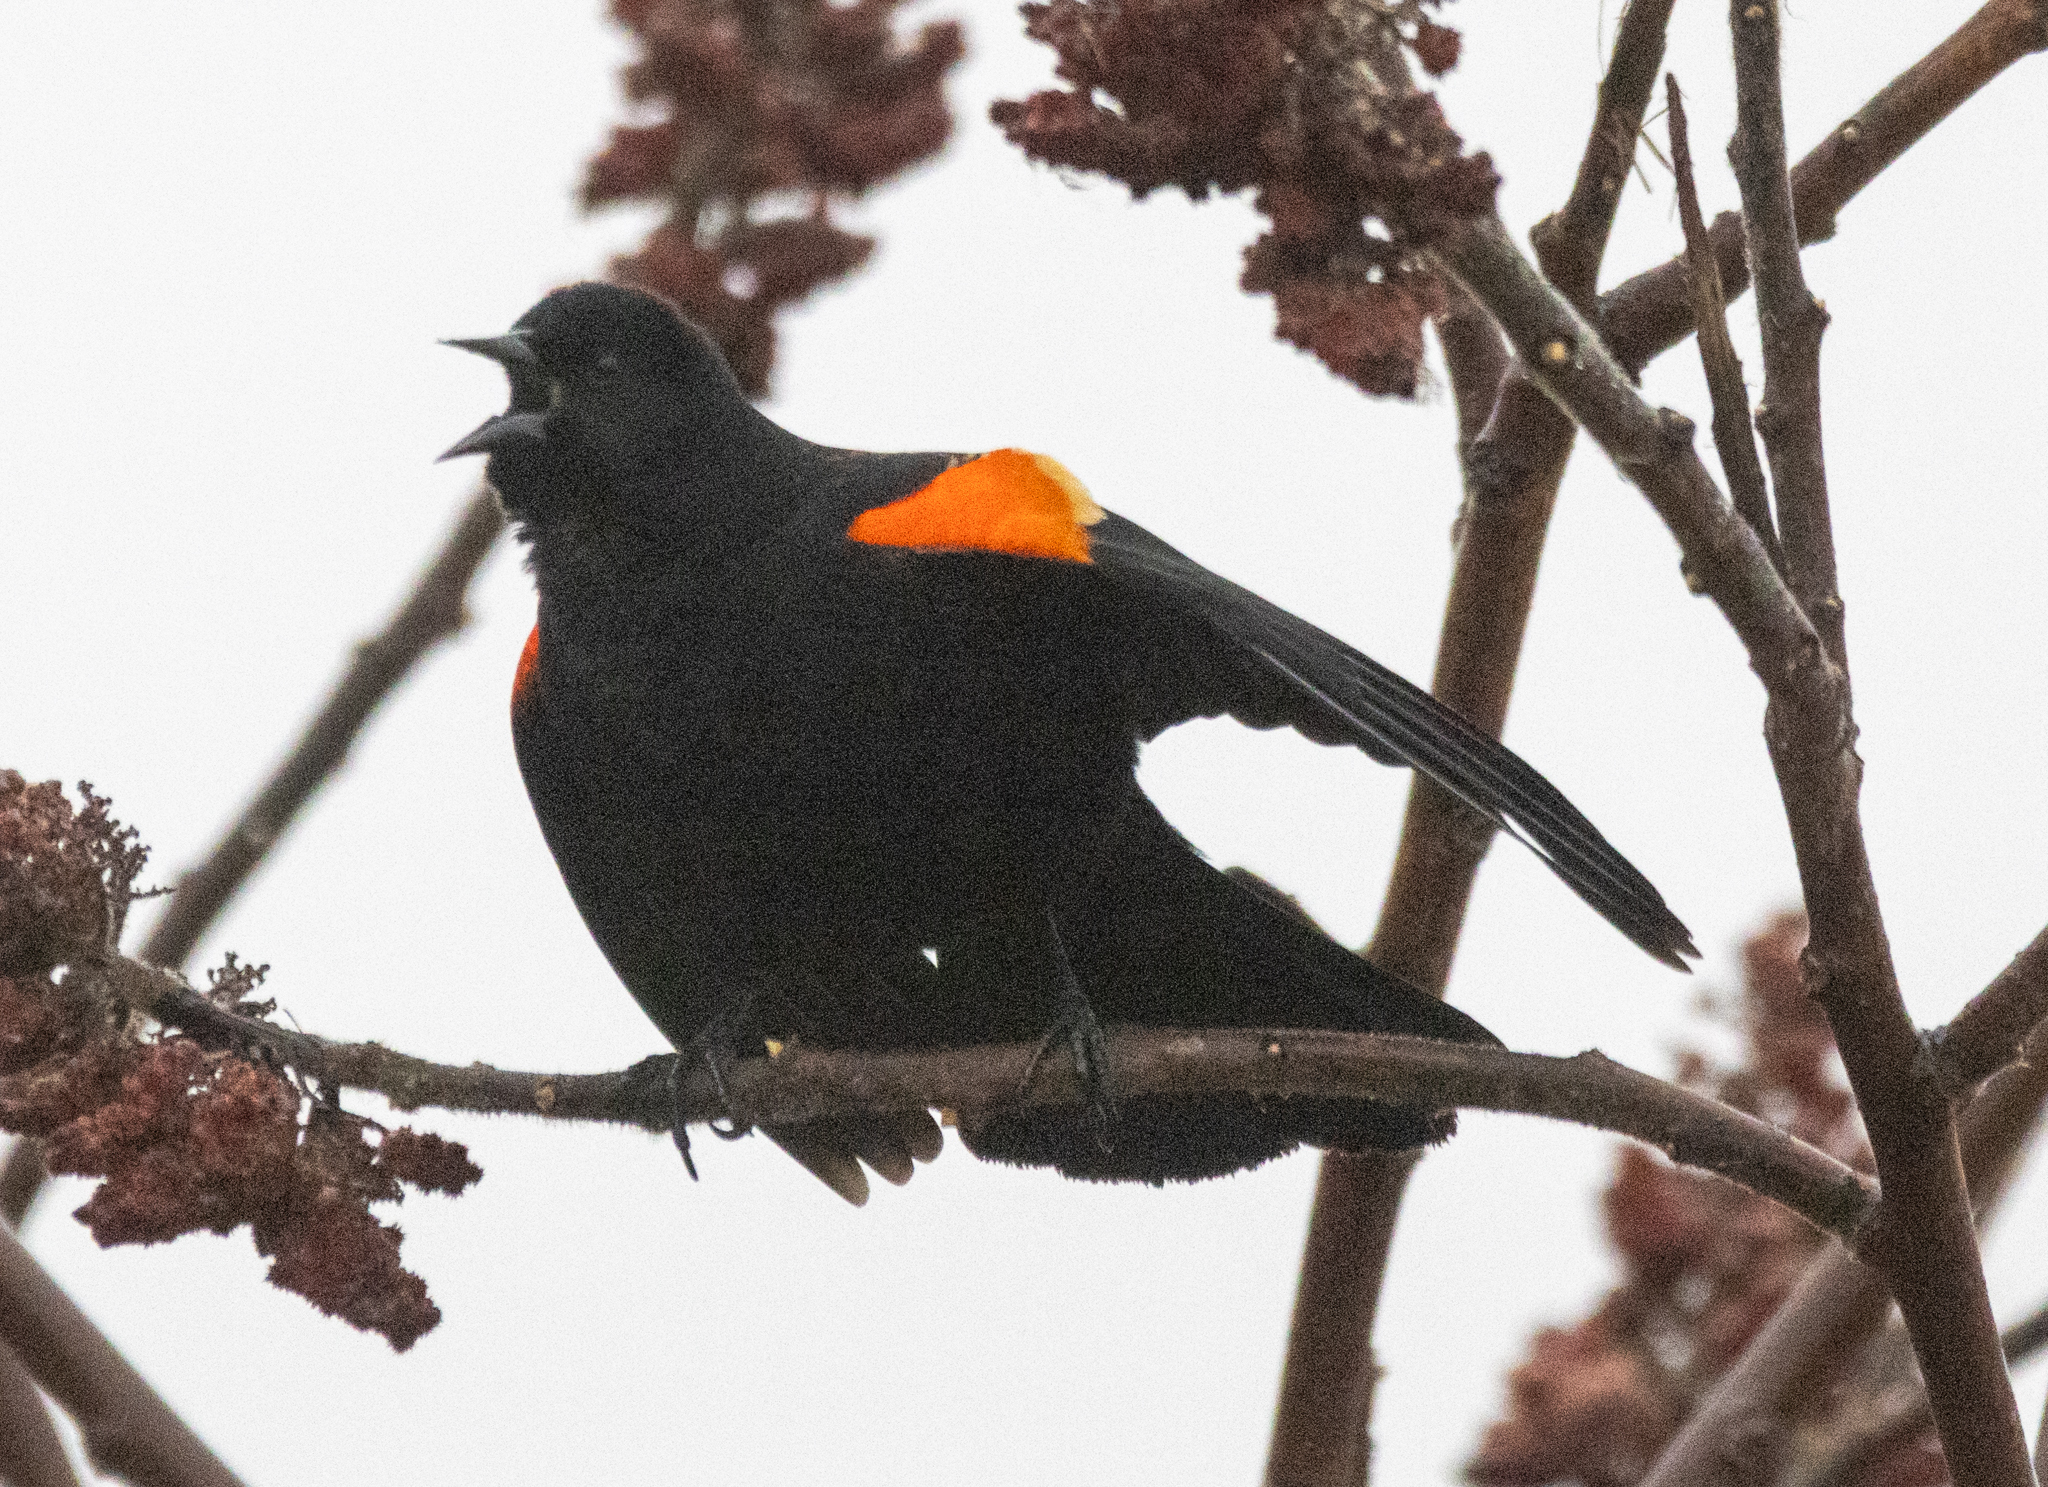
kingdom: Animalia
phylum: Chordata
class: Aves
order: Passeriformes
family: Icteridae
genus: Agelaius
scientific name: Agelaius phoeniceus
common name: Red-winged blackbird
